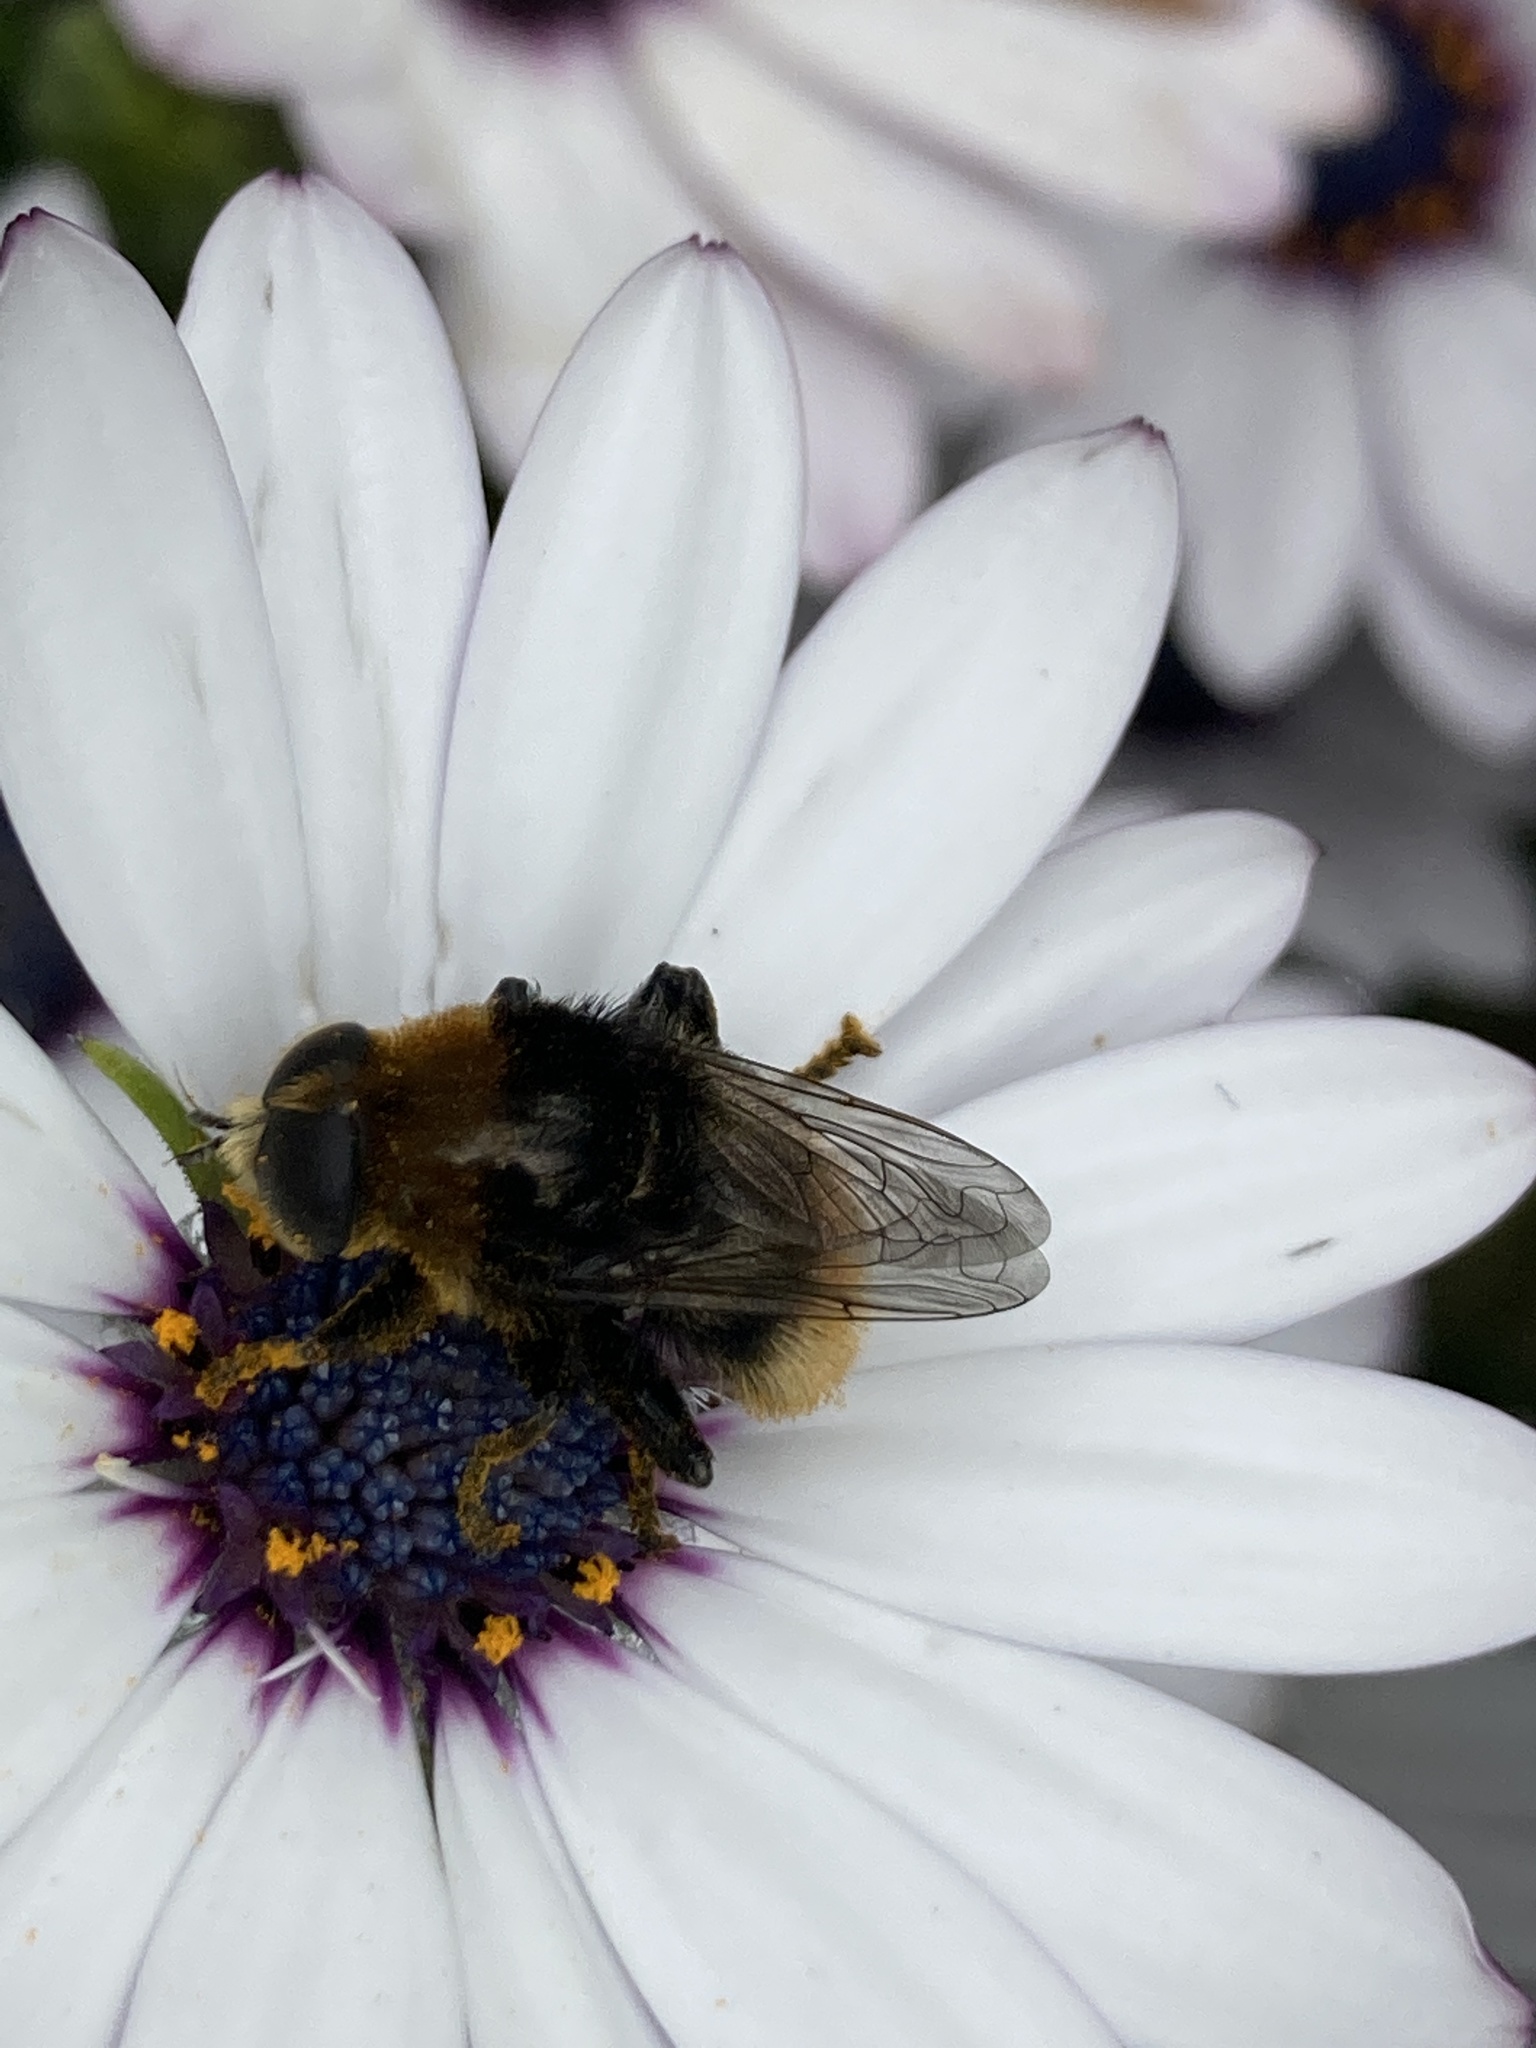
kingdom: Animalia
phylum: Arthropoda
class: Insecta
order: Diptera
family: Syrphidae
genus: Merodon
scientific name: Merodon equestris
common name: Greater bulb-fly
